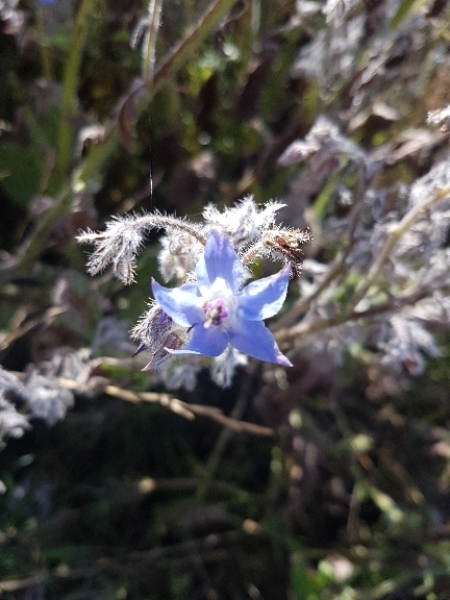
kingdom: Plantae
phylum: Tracheophyta
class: Magnoliopsida
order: Boraginales
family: Boraginaceae
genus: Borago
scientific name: Borago officinalis
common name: Borage
